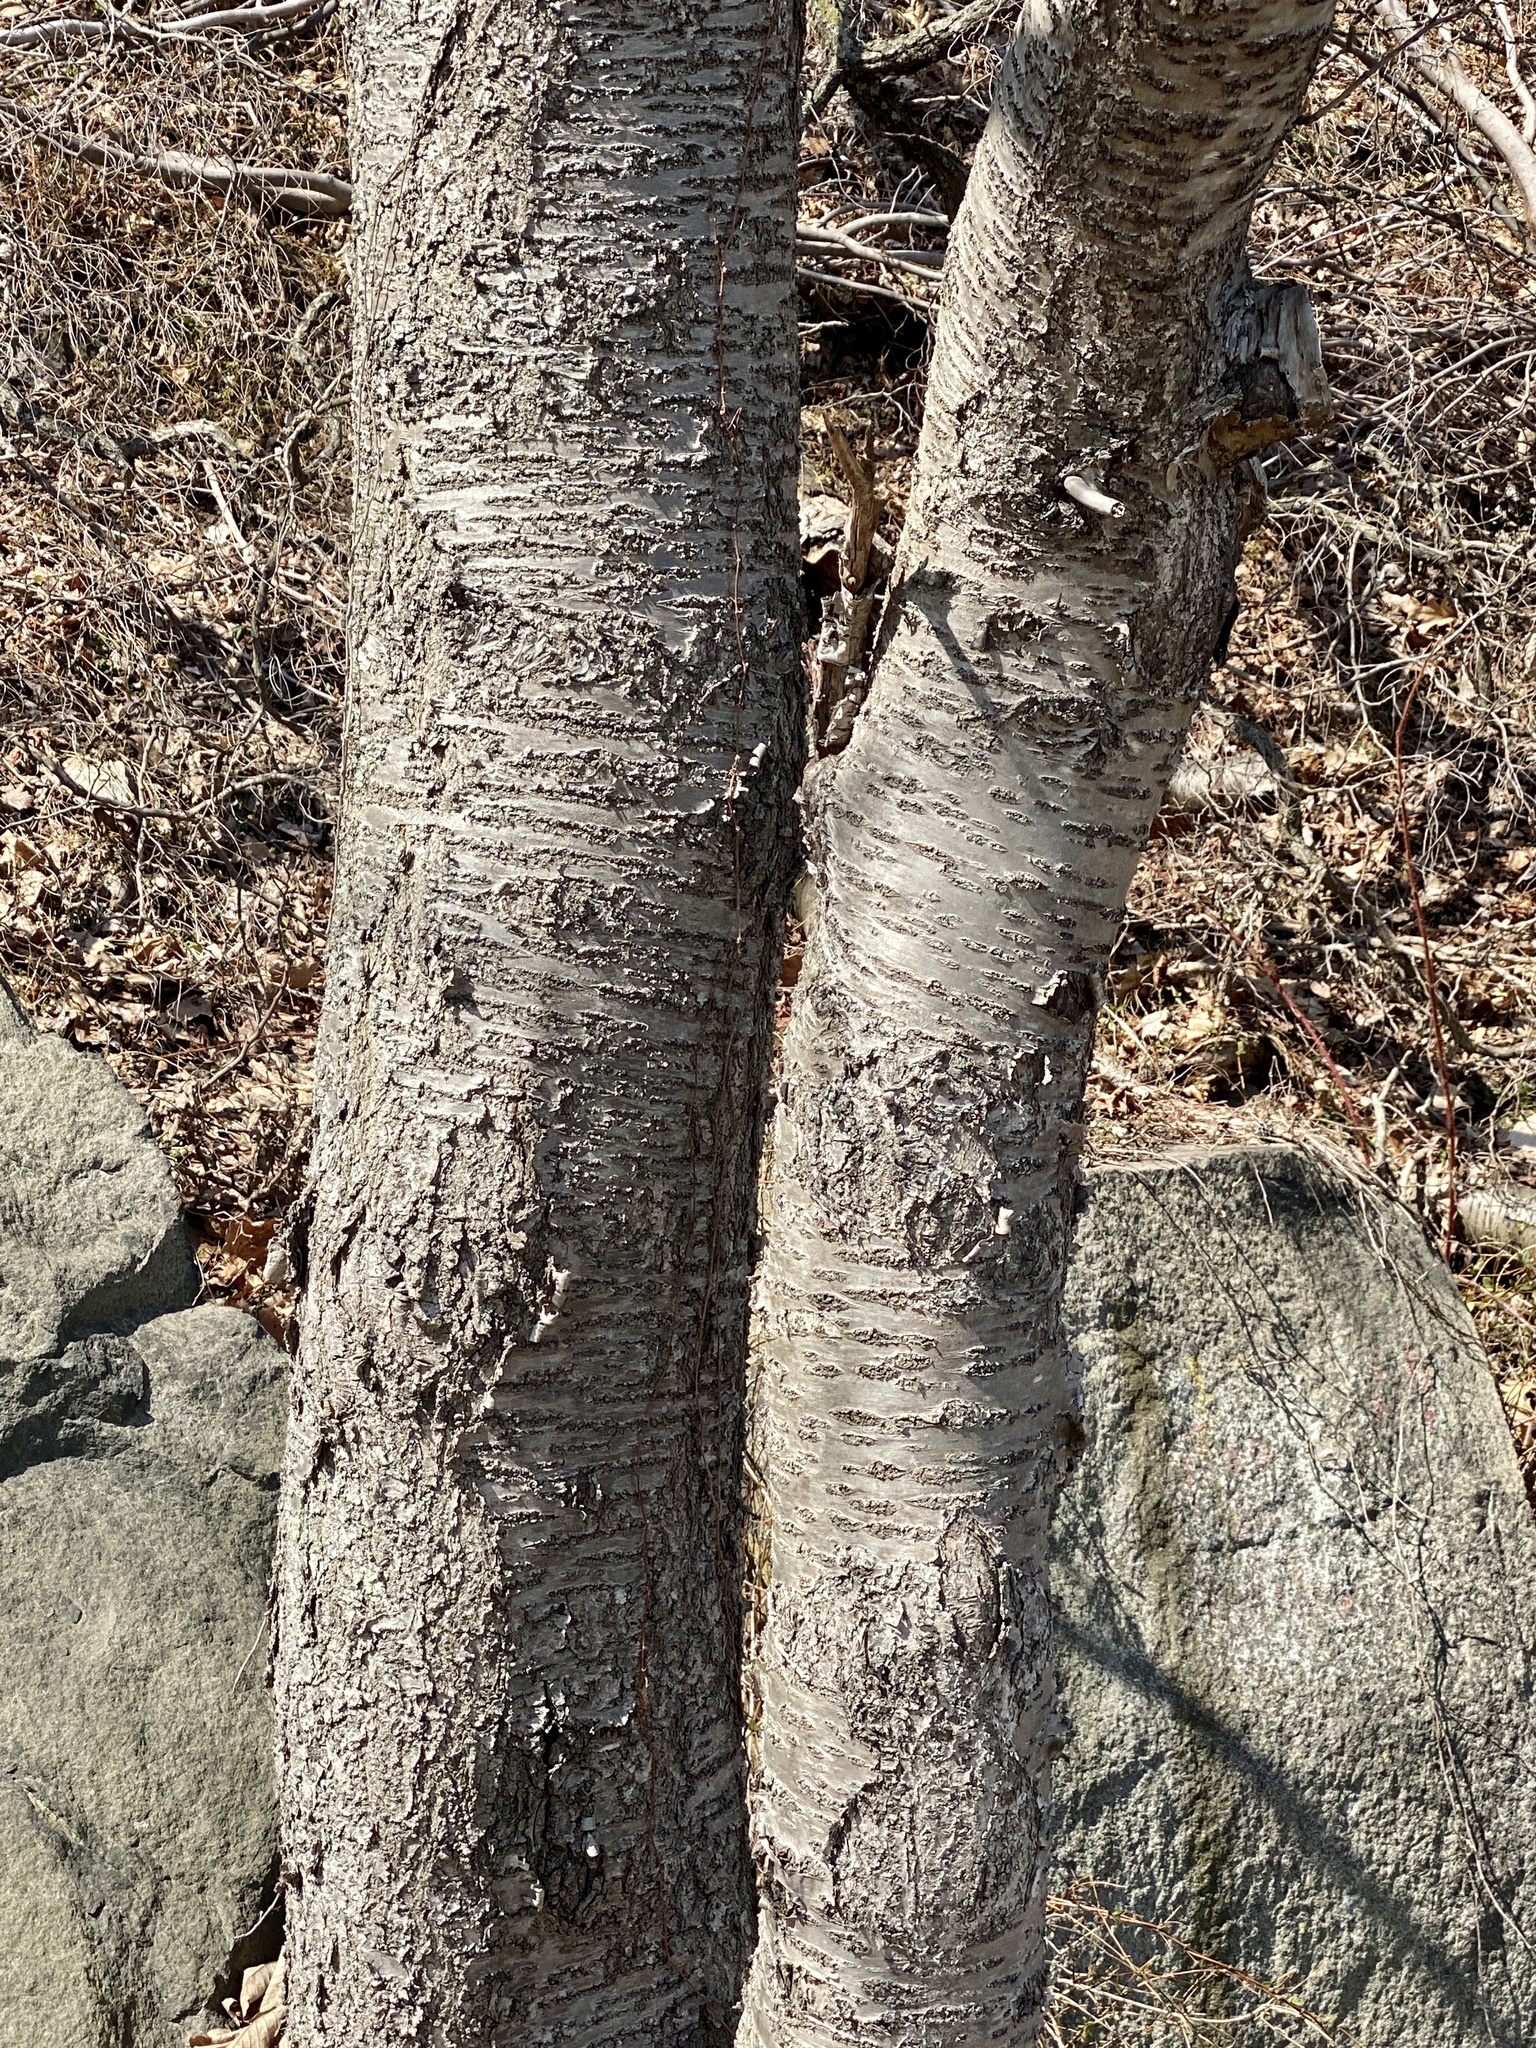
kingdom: Plantae
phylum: Tracheophyta
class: Magnoliopsida
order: Fagales
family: Betulaceae
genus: Betula
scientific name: Betula lenta
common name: Black birch
